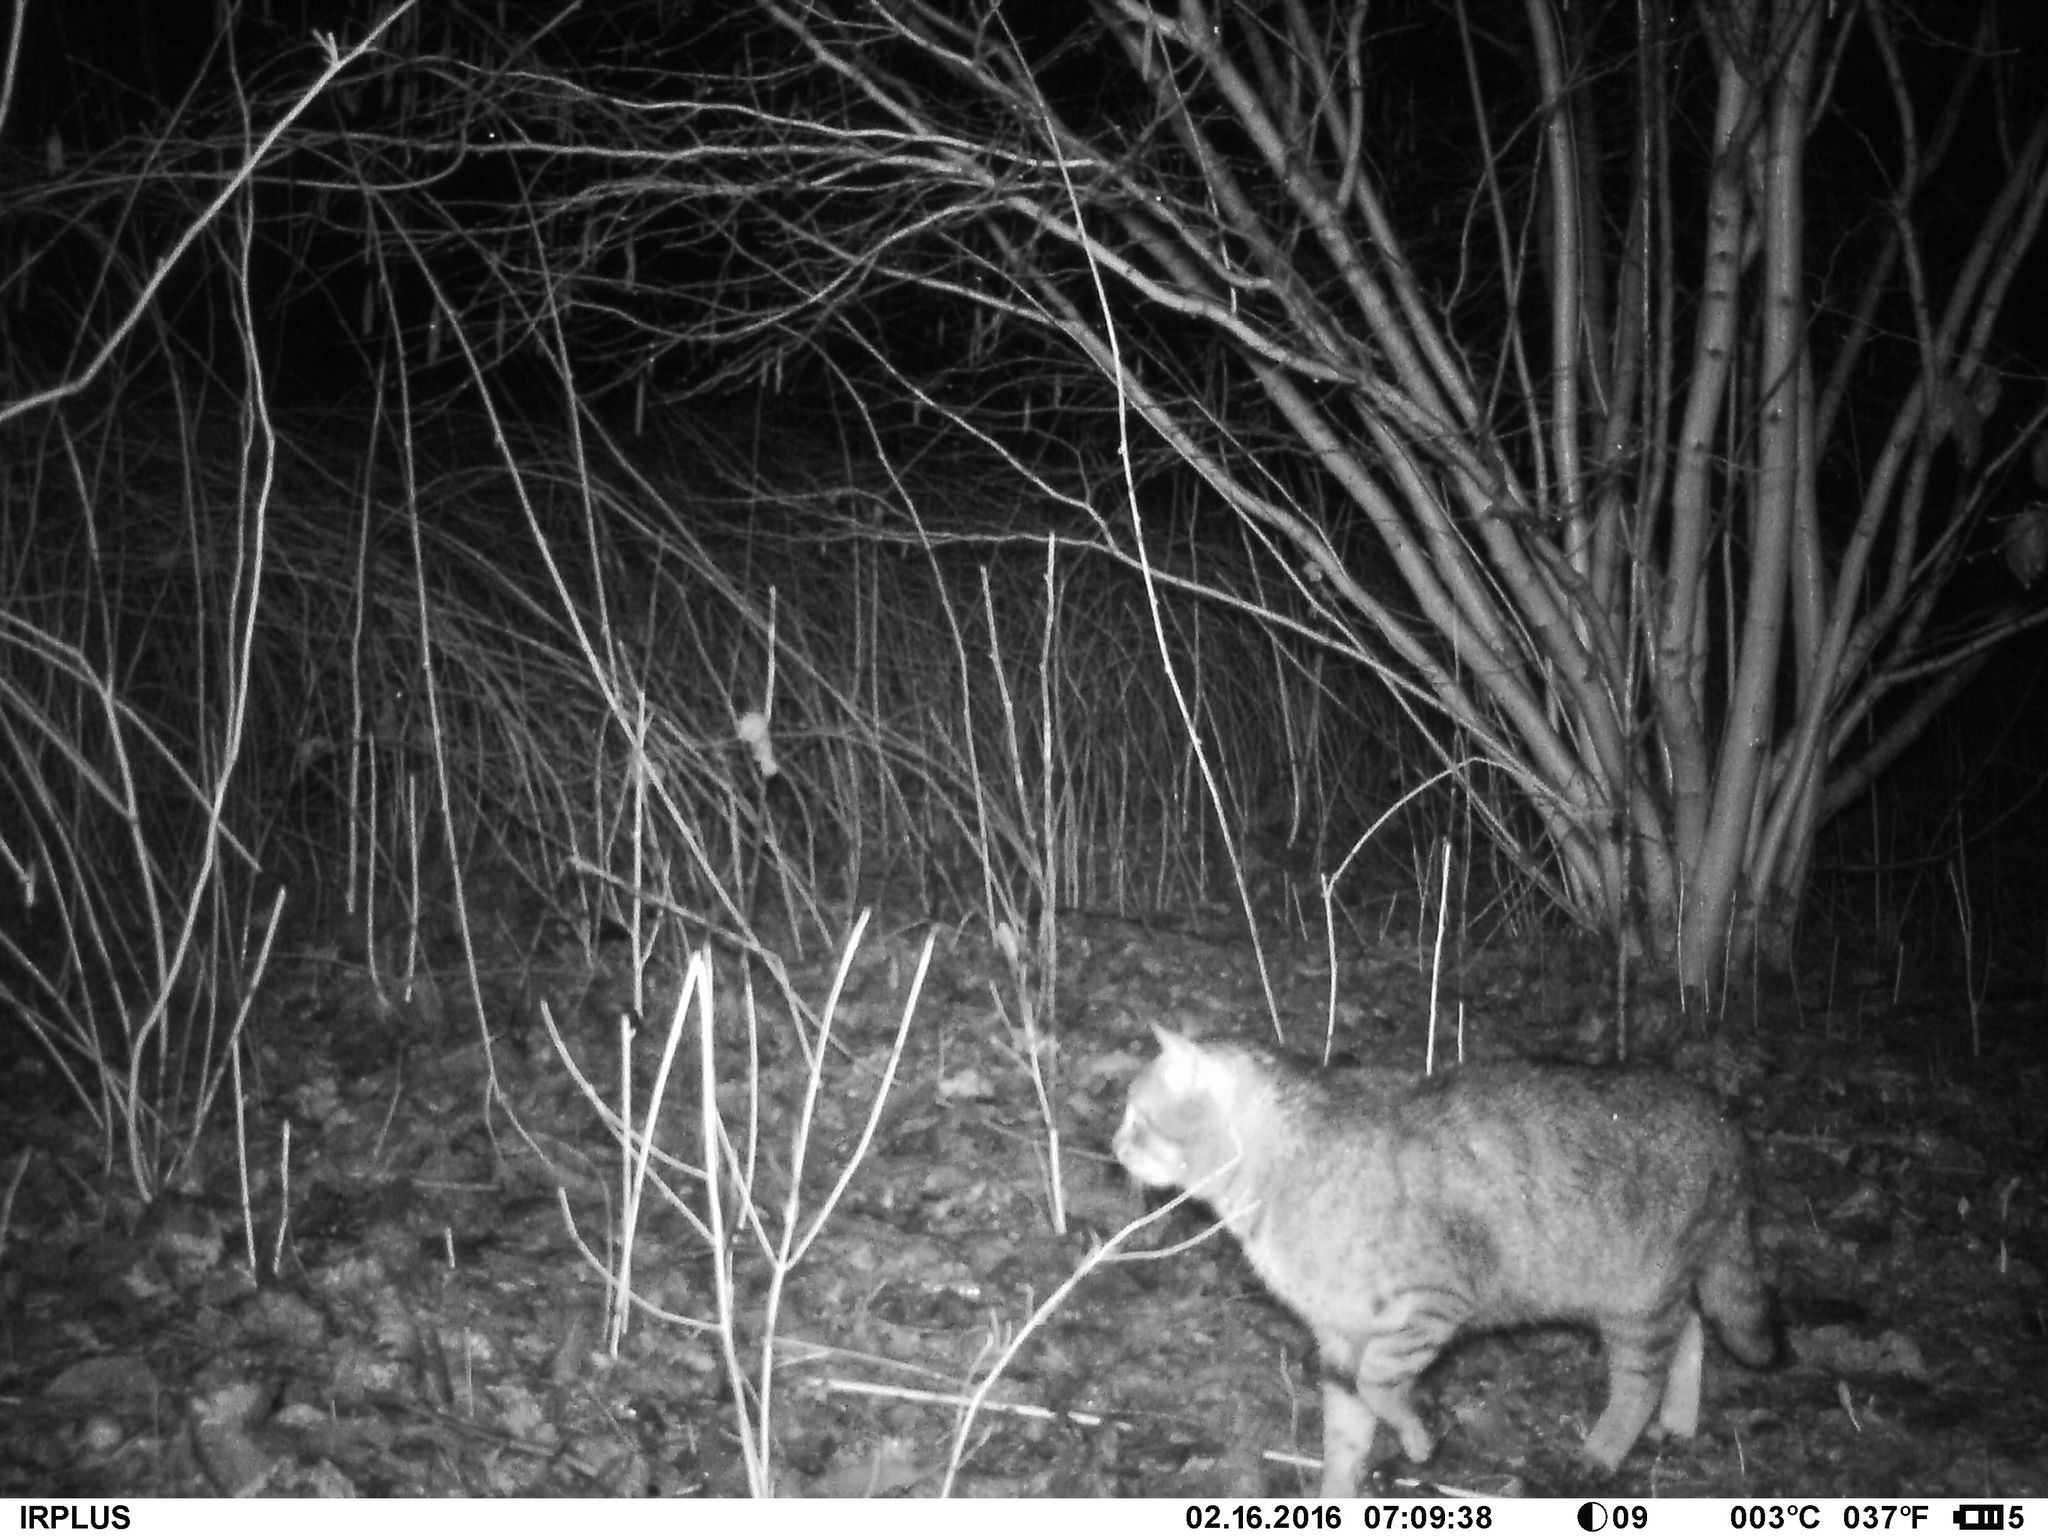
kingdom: Animalia
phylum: Chordata
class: Mammalia
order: Carnivora
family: Felidae
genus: Felis
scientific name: Felis catus
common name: Domestic cat
